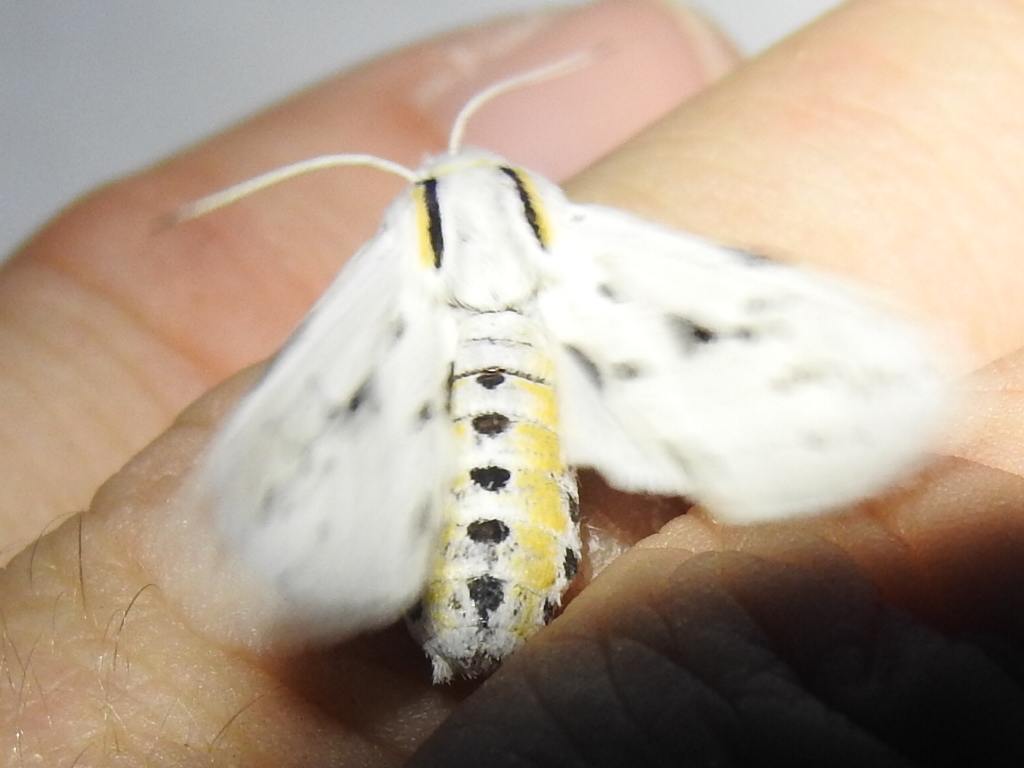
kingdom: Animalia
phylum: Arthropoda
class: Insecta
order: Lepidoptera
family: Erebidae
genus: Ectypia
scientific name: Ectypia bivittata
